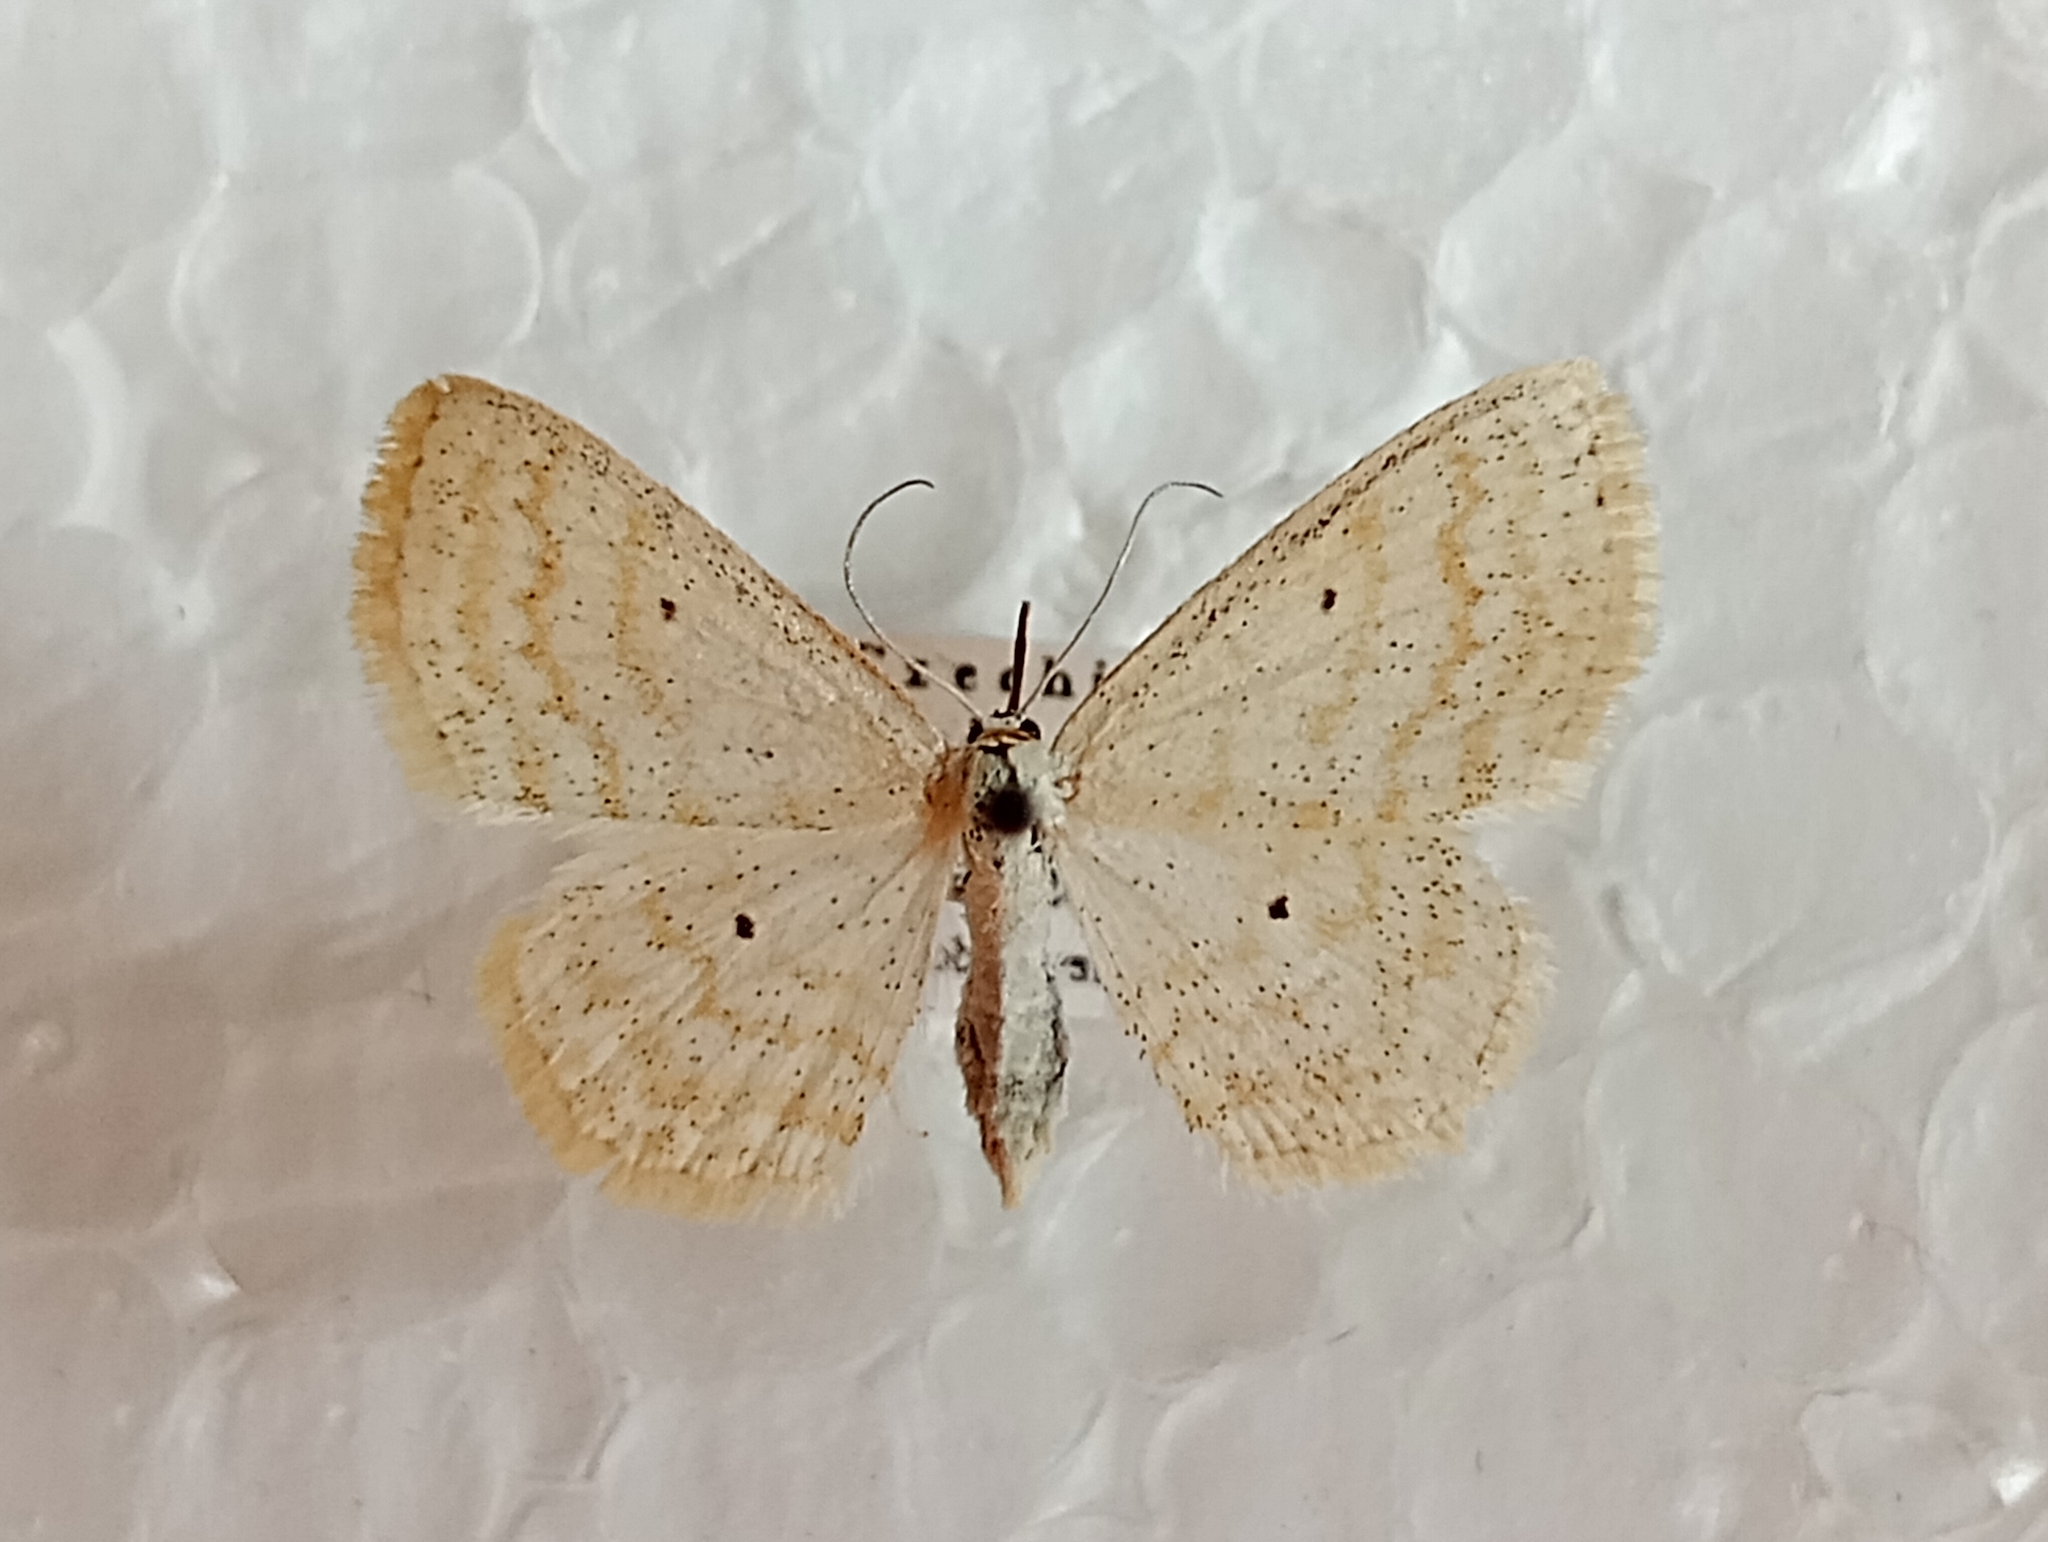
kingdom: Animalia
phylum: Arthropoda
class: Insecta
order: Lepidoptera
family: Geometridae
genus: Scopula
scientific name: Scopula immutata
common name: Lesser cream wave
